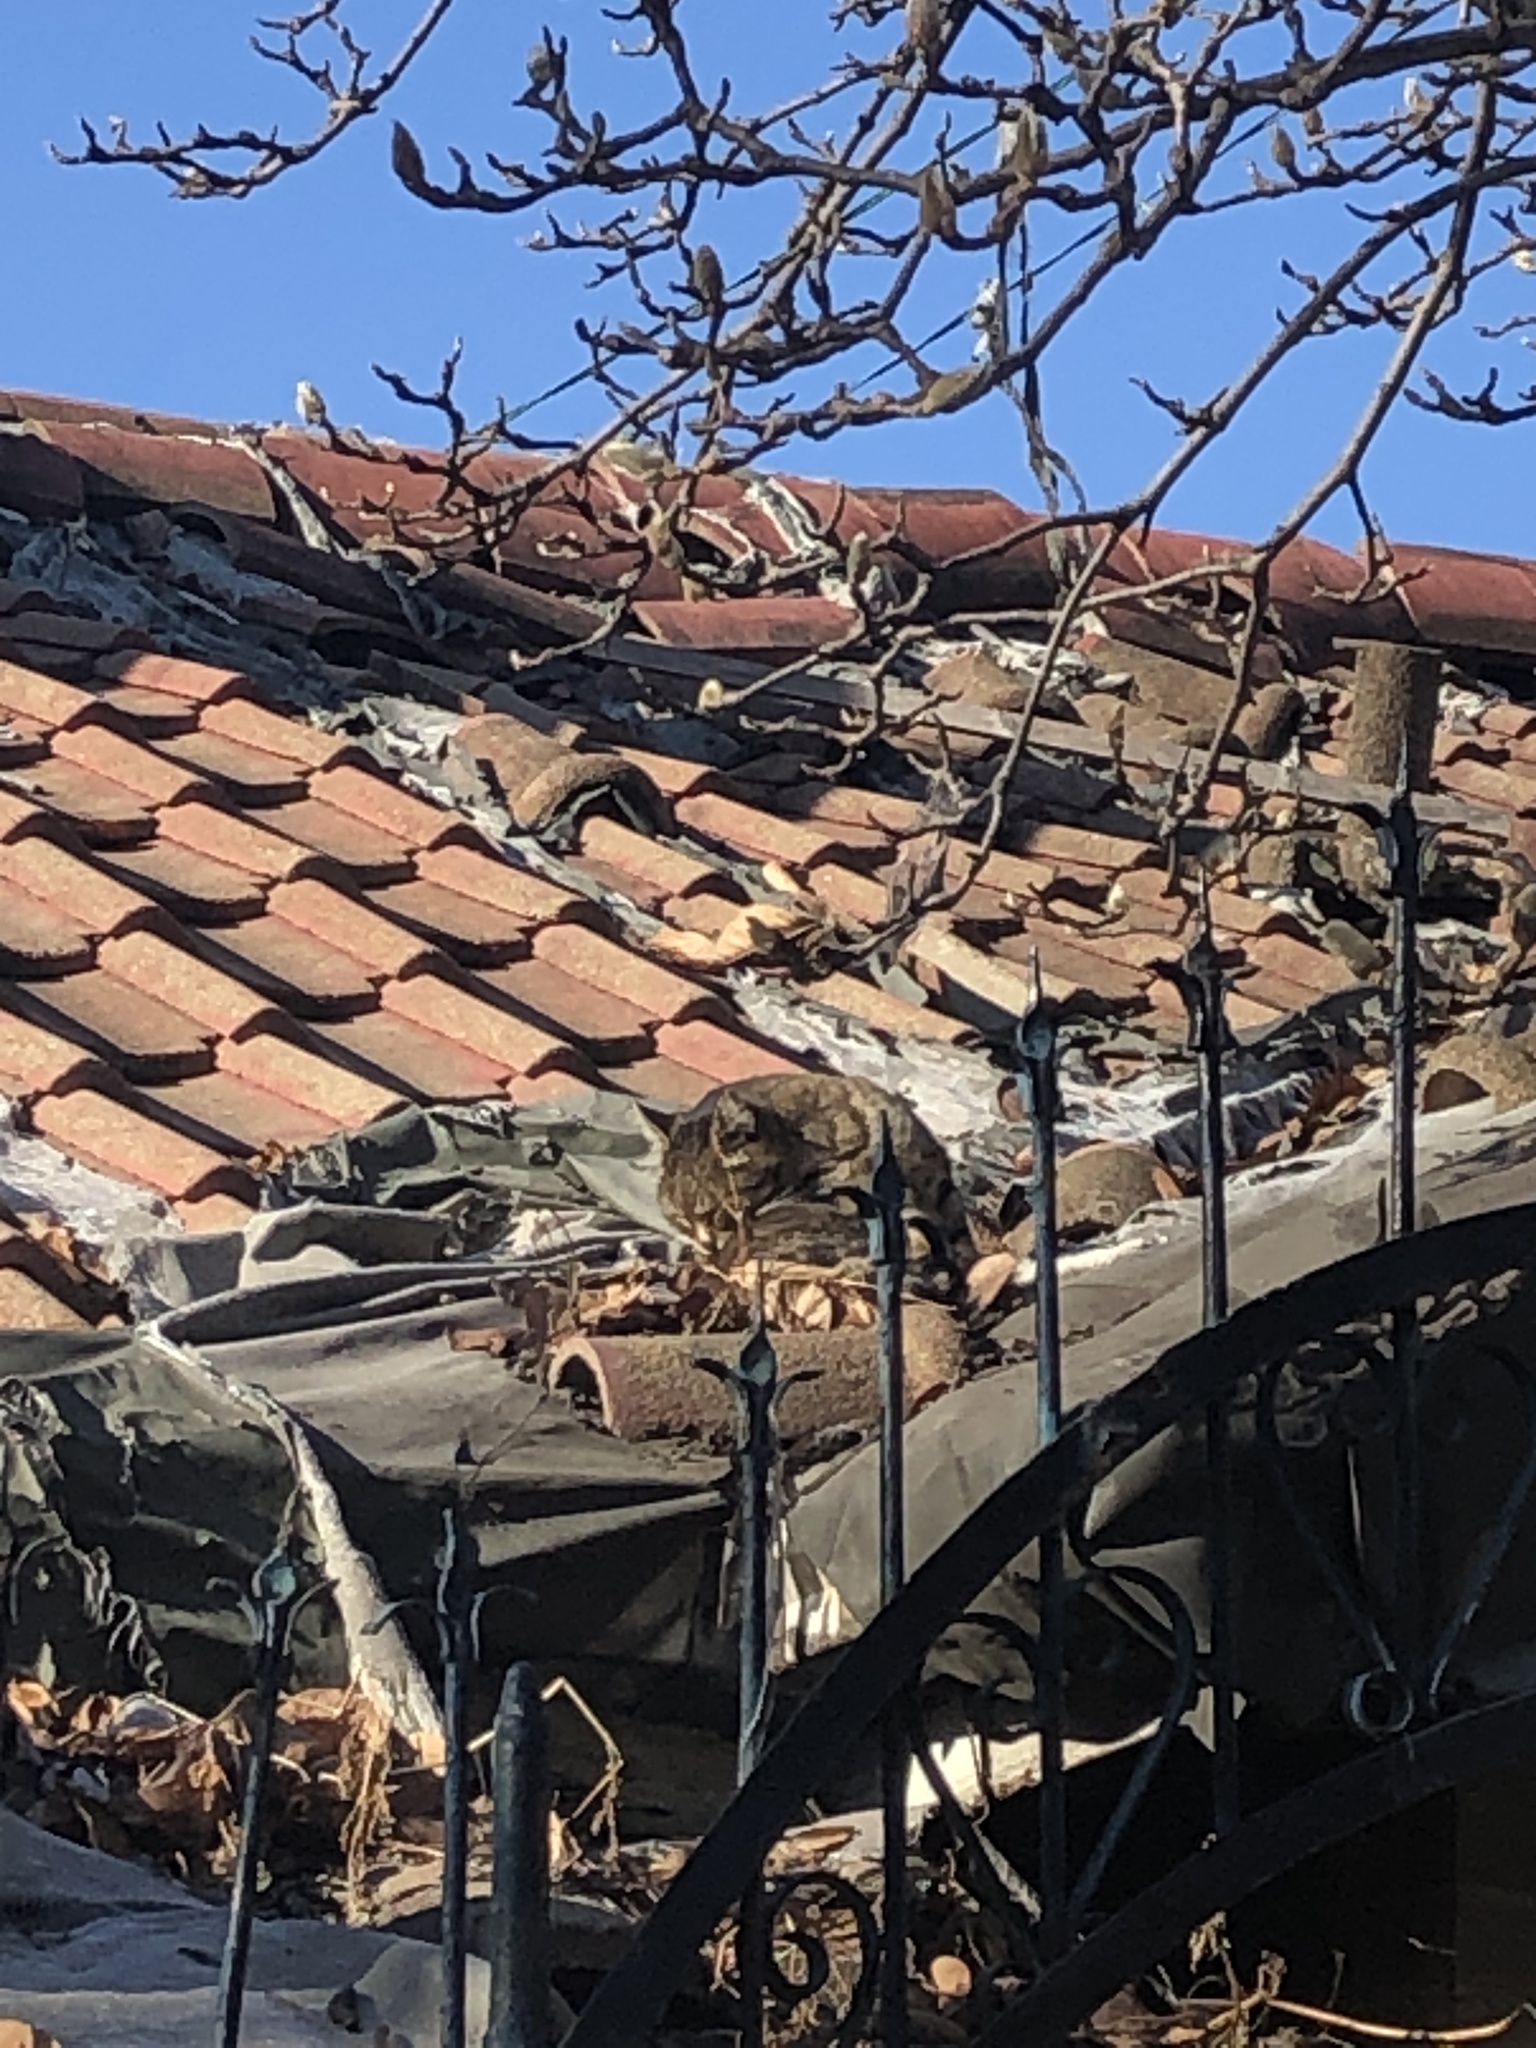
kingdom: Animalia
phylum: Chordata
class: Mammalia
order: Carnivora
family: Felidae
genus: Felis
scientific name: Felis catus
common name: Domestic cat
